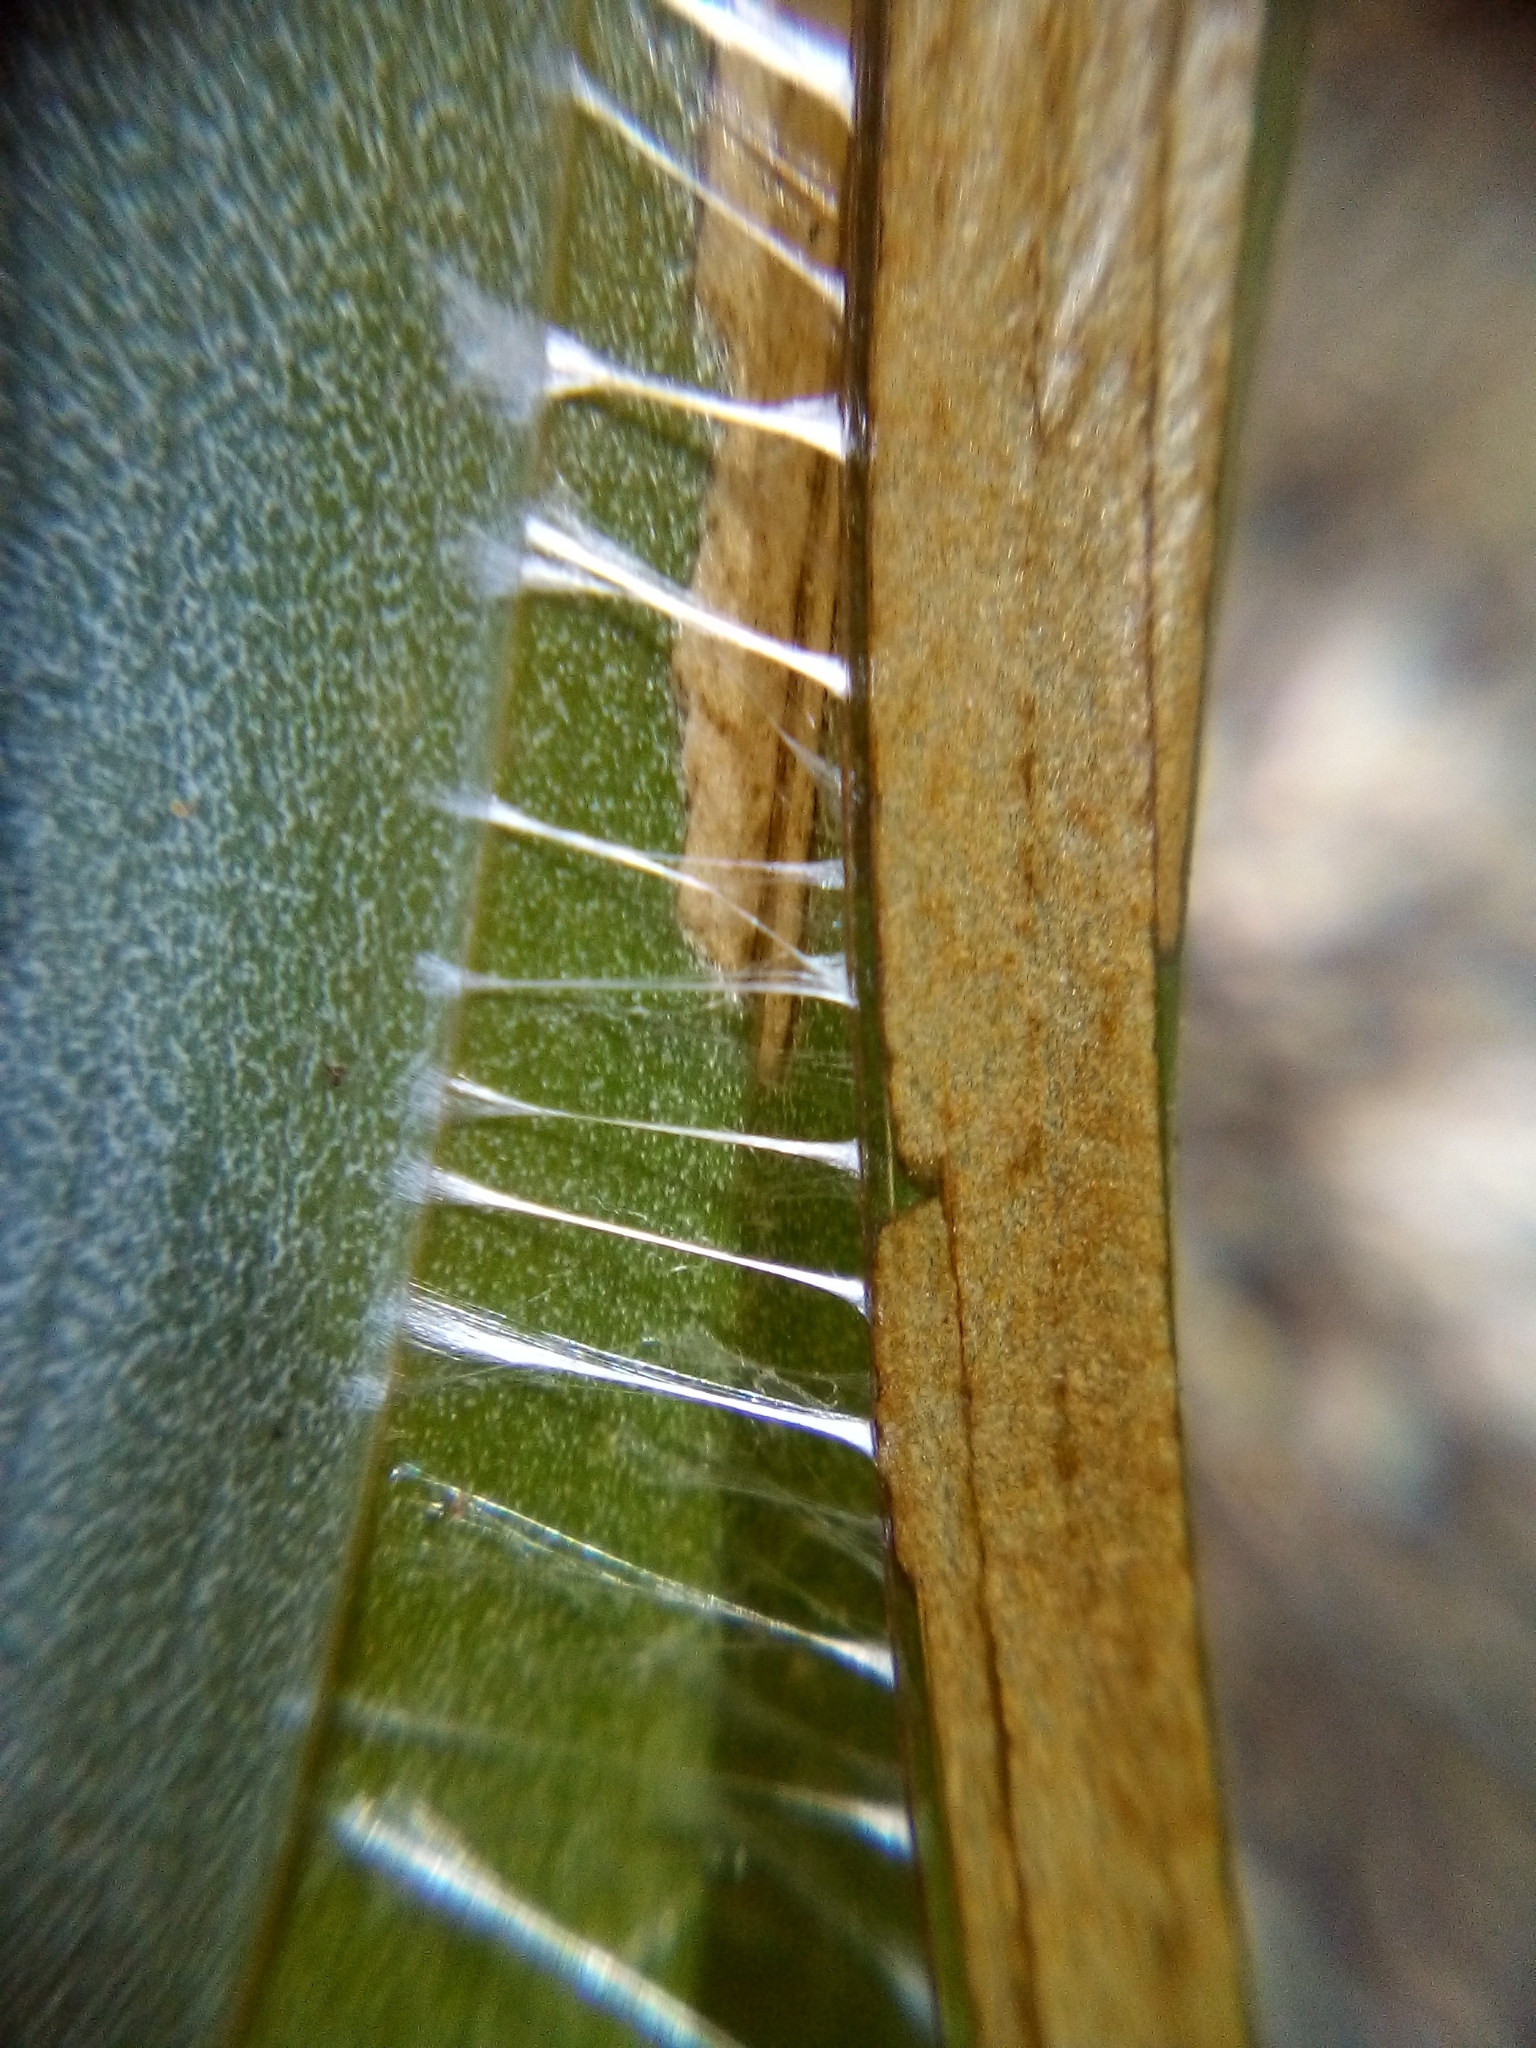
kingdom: Animalia
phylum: Arthropoda
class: Insecta
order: Lepidoptera
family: Xyloryctidae
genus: Donacostola
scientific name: Donacostola notabilis
